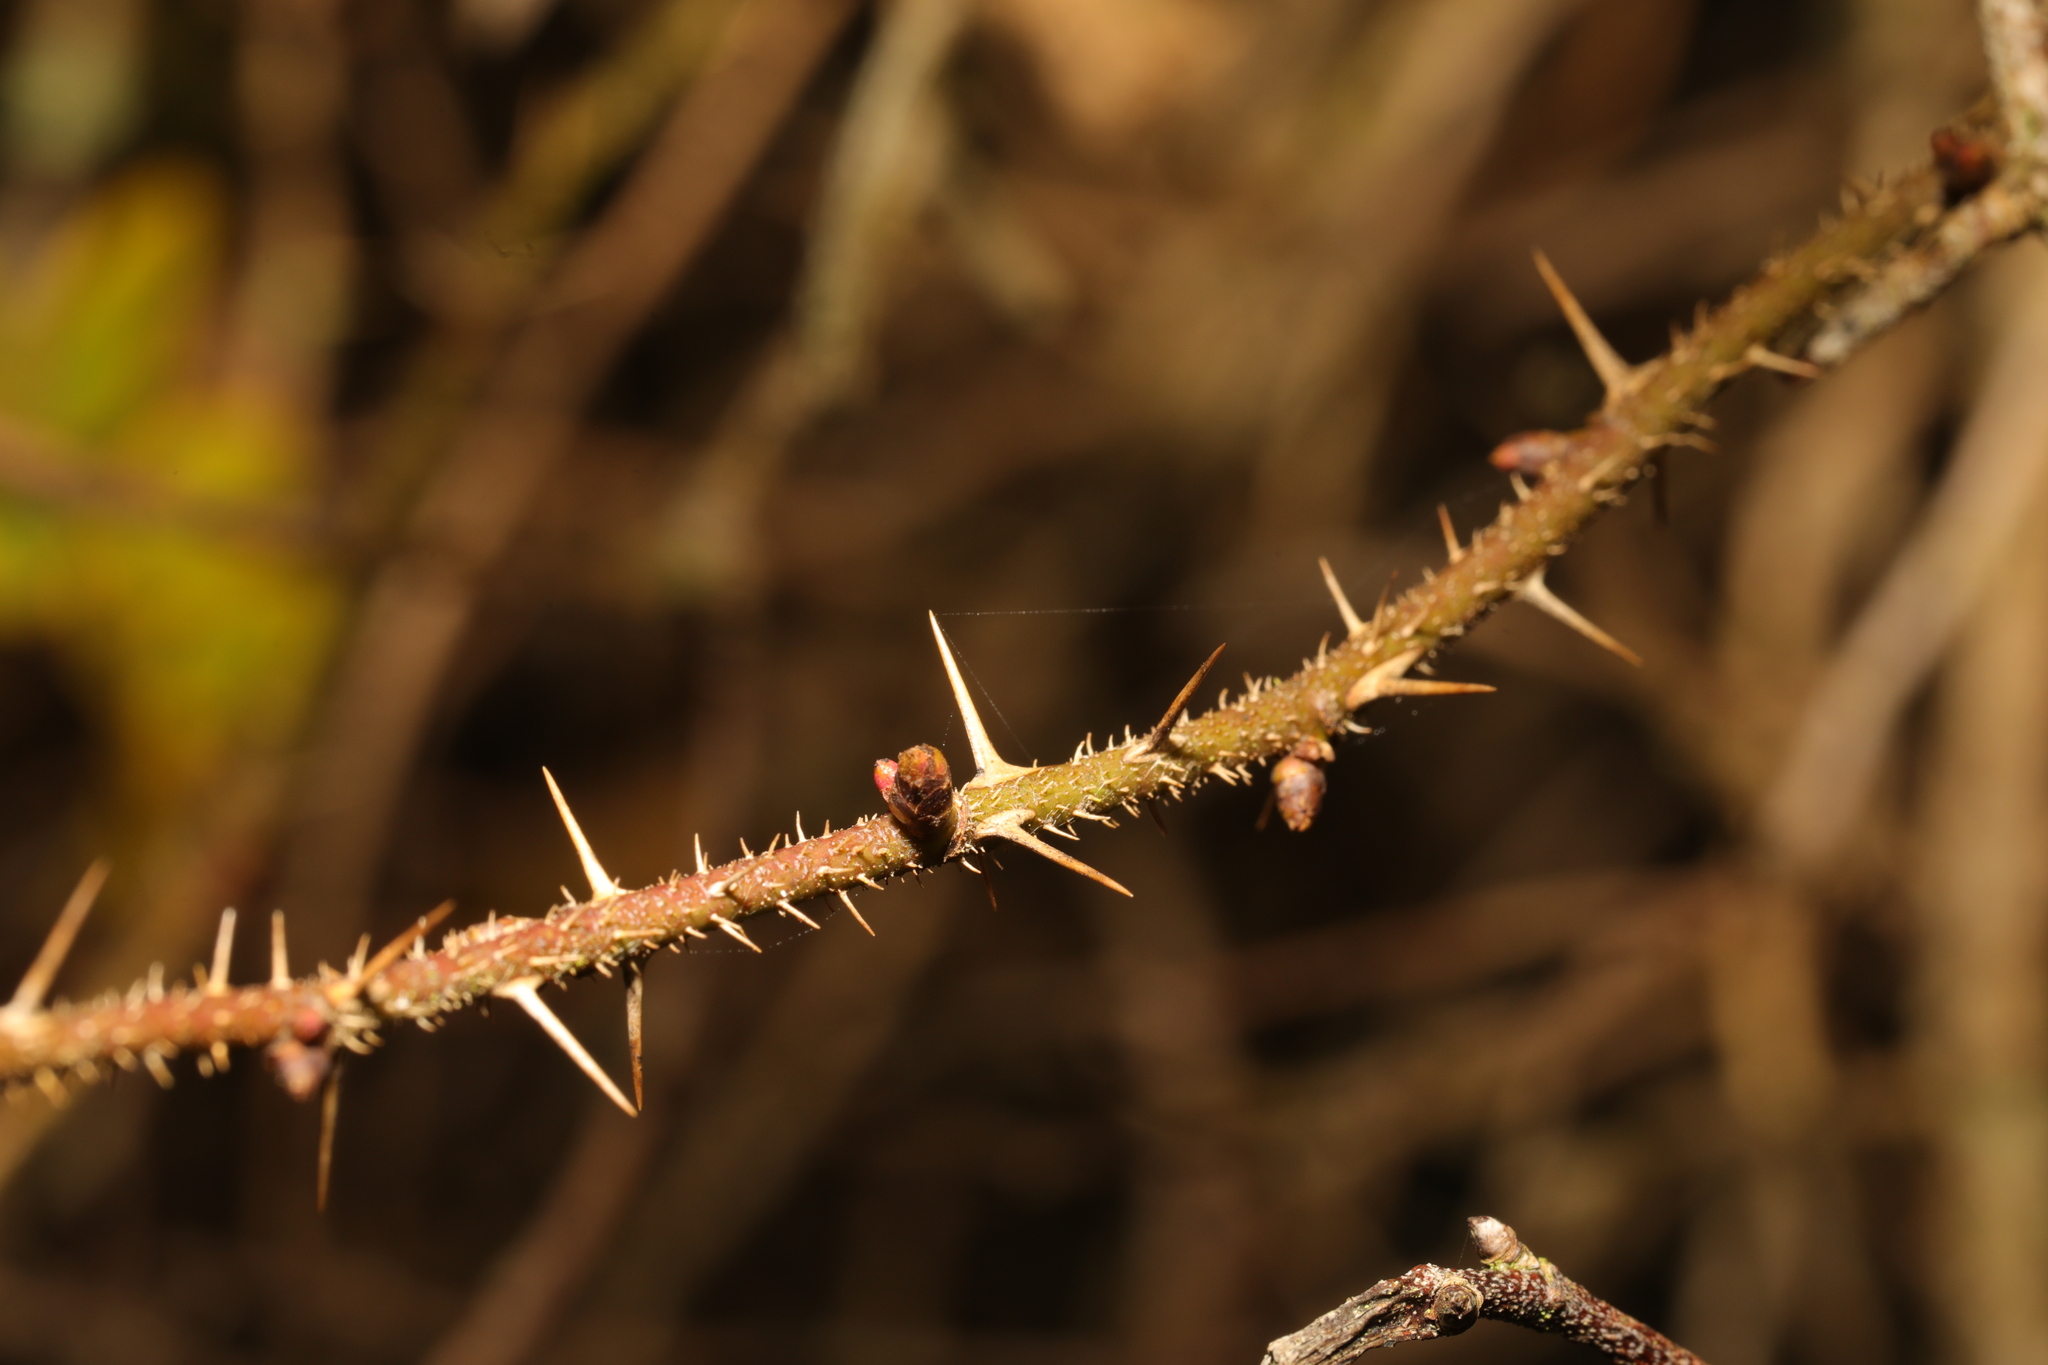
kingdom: Plantae
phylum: Tracheophyta
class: Magnoliopsida
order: Rosales
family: Rosaceae
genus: Rosa
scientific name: Rosa spinosissima
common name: Burnet rose
